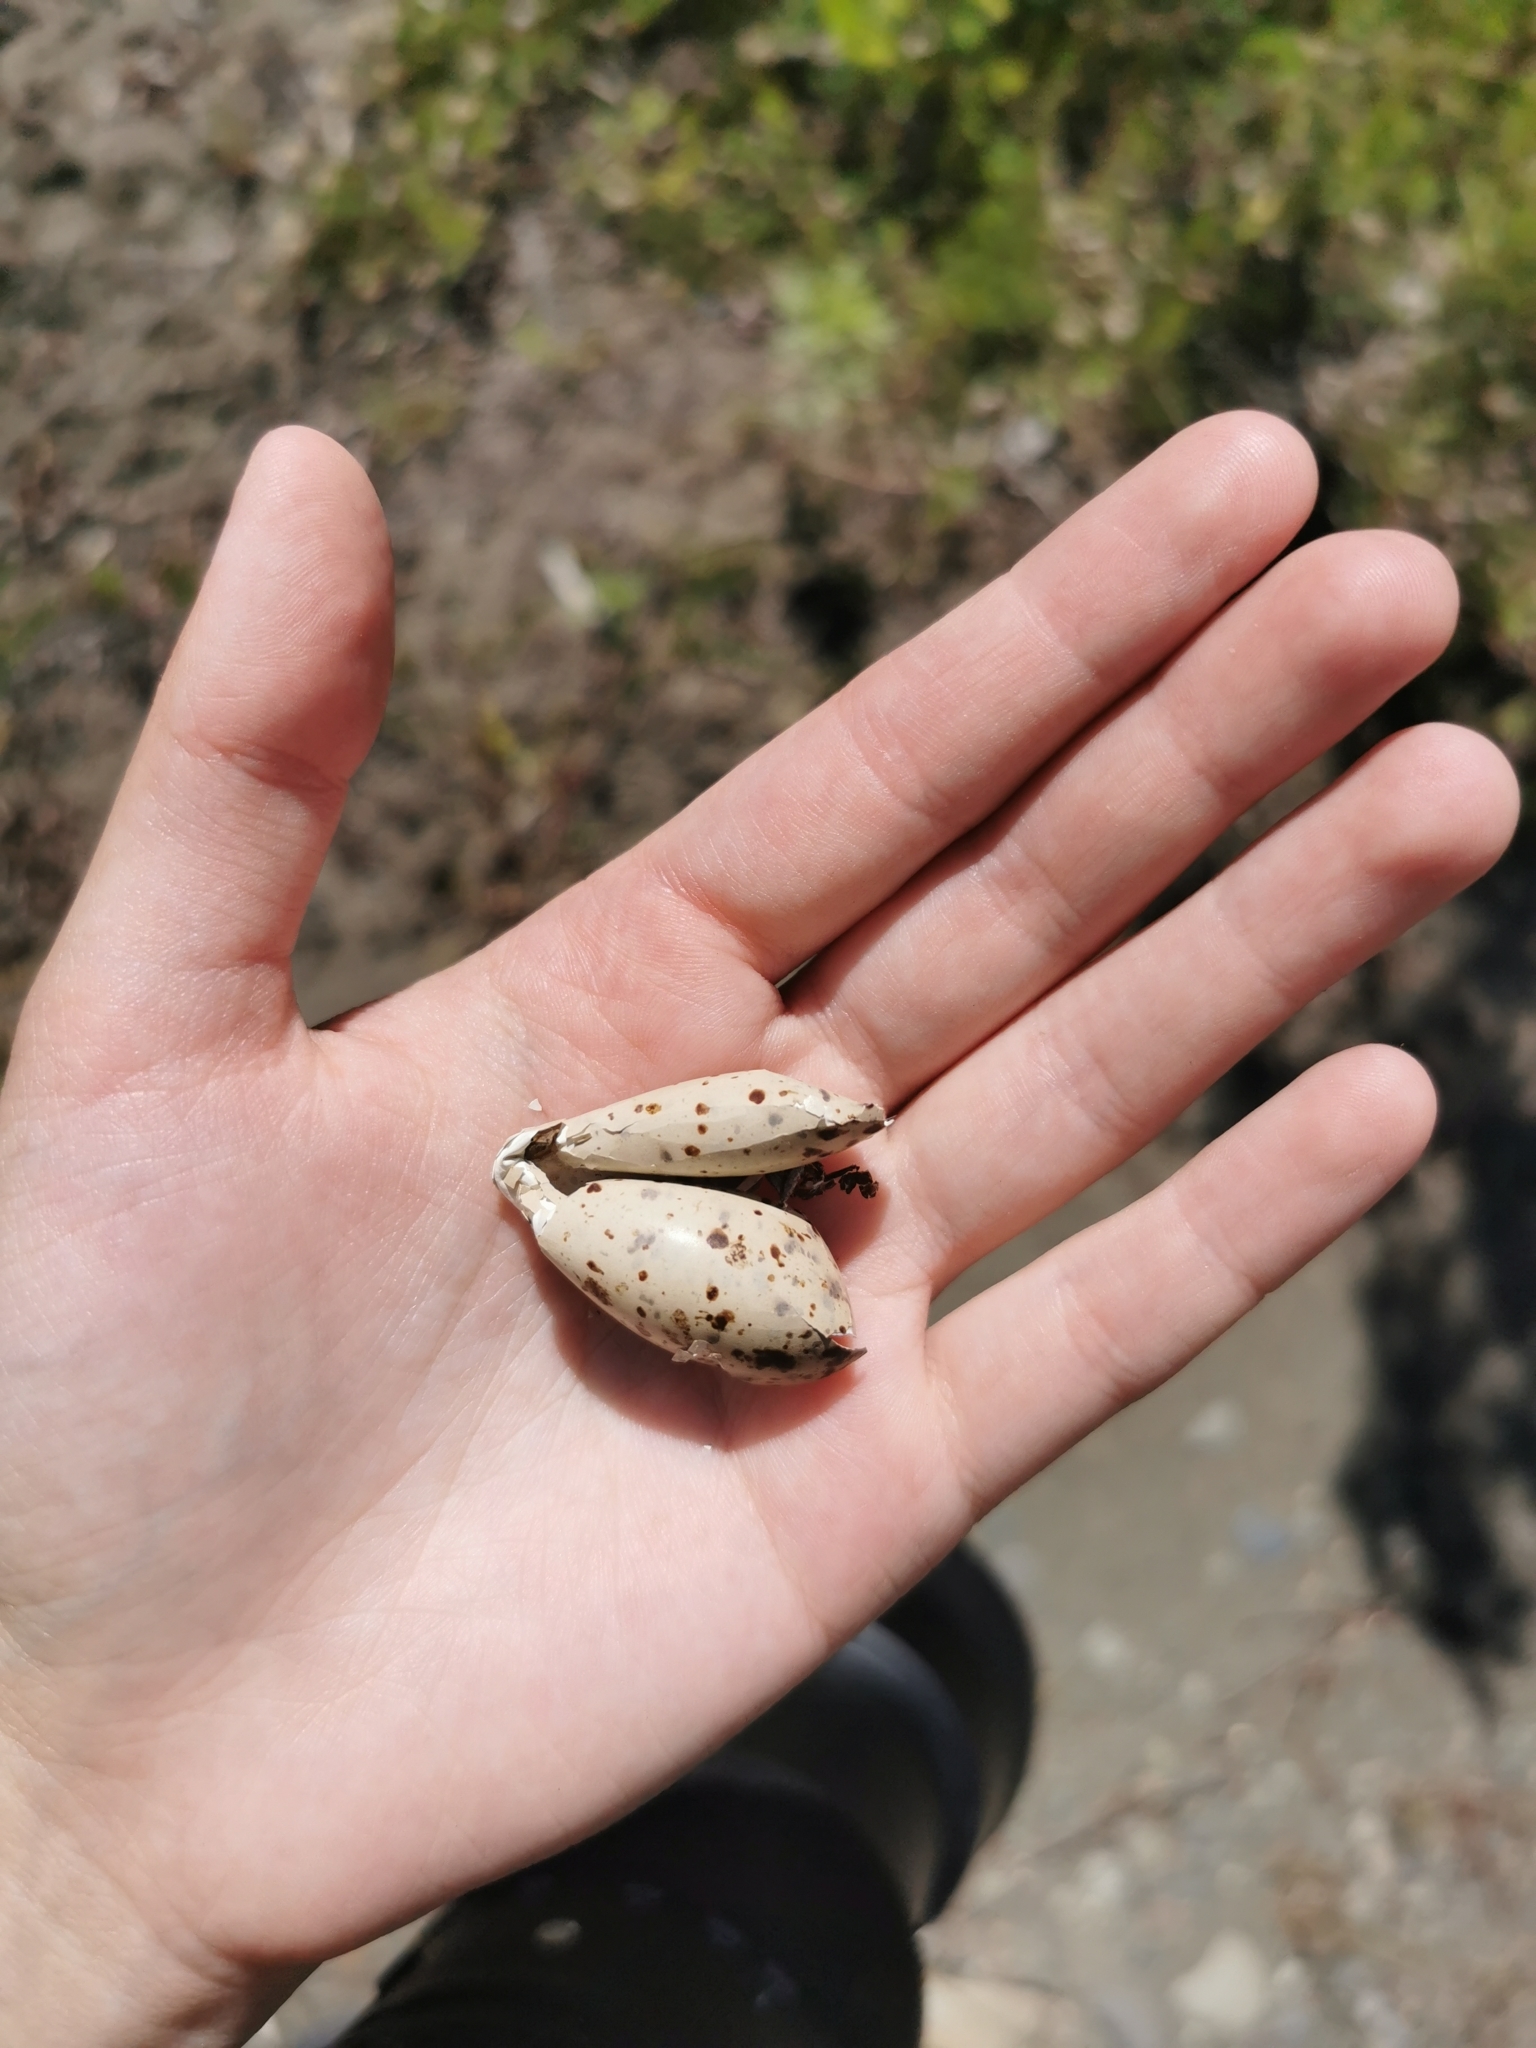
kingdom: Animalia
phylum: Chordata
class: Aves
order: Charadriiformes
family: Scolopacidae
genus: Actitis
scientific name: Actitis hypoleucos
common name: Common sandpiper
